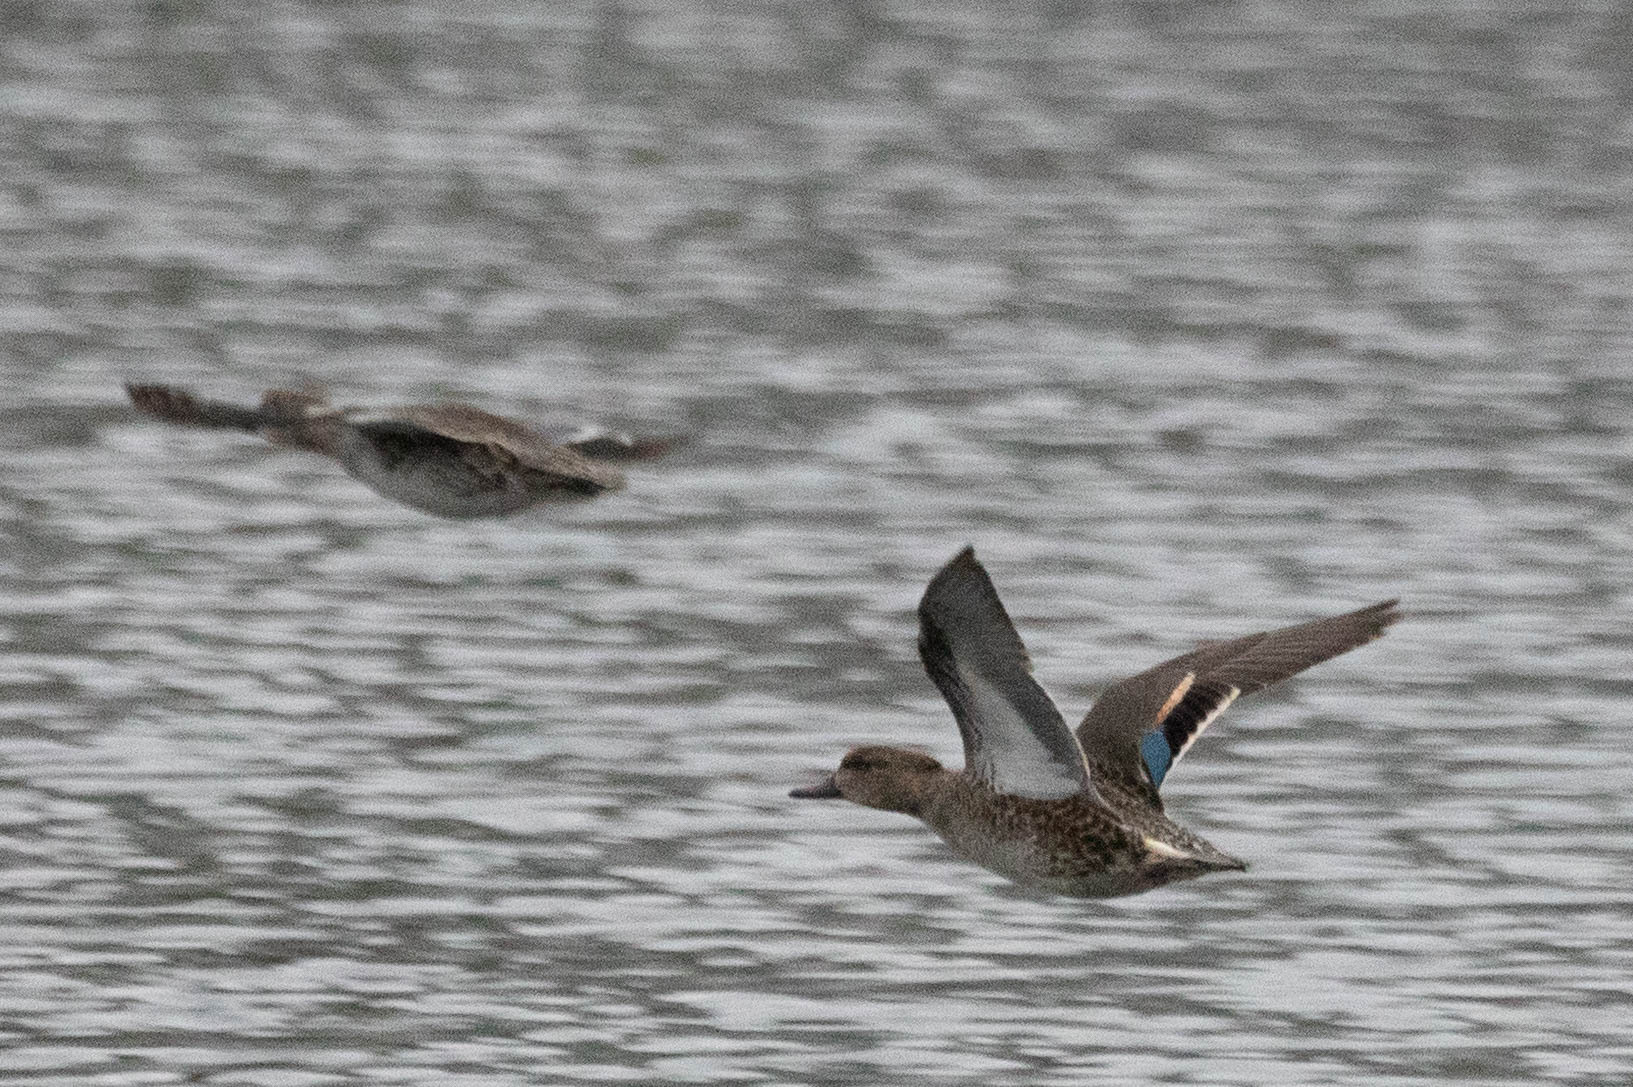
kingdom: Animalia
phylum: Chordata
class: Aves
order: Anseriformes
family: Anatidae
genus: Anas
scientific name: Anas crecca
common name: Eurasian teal
